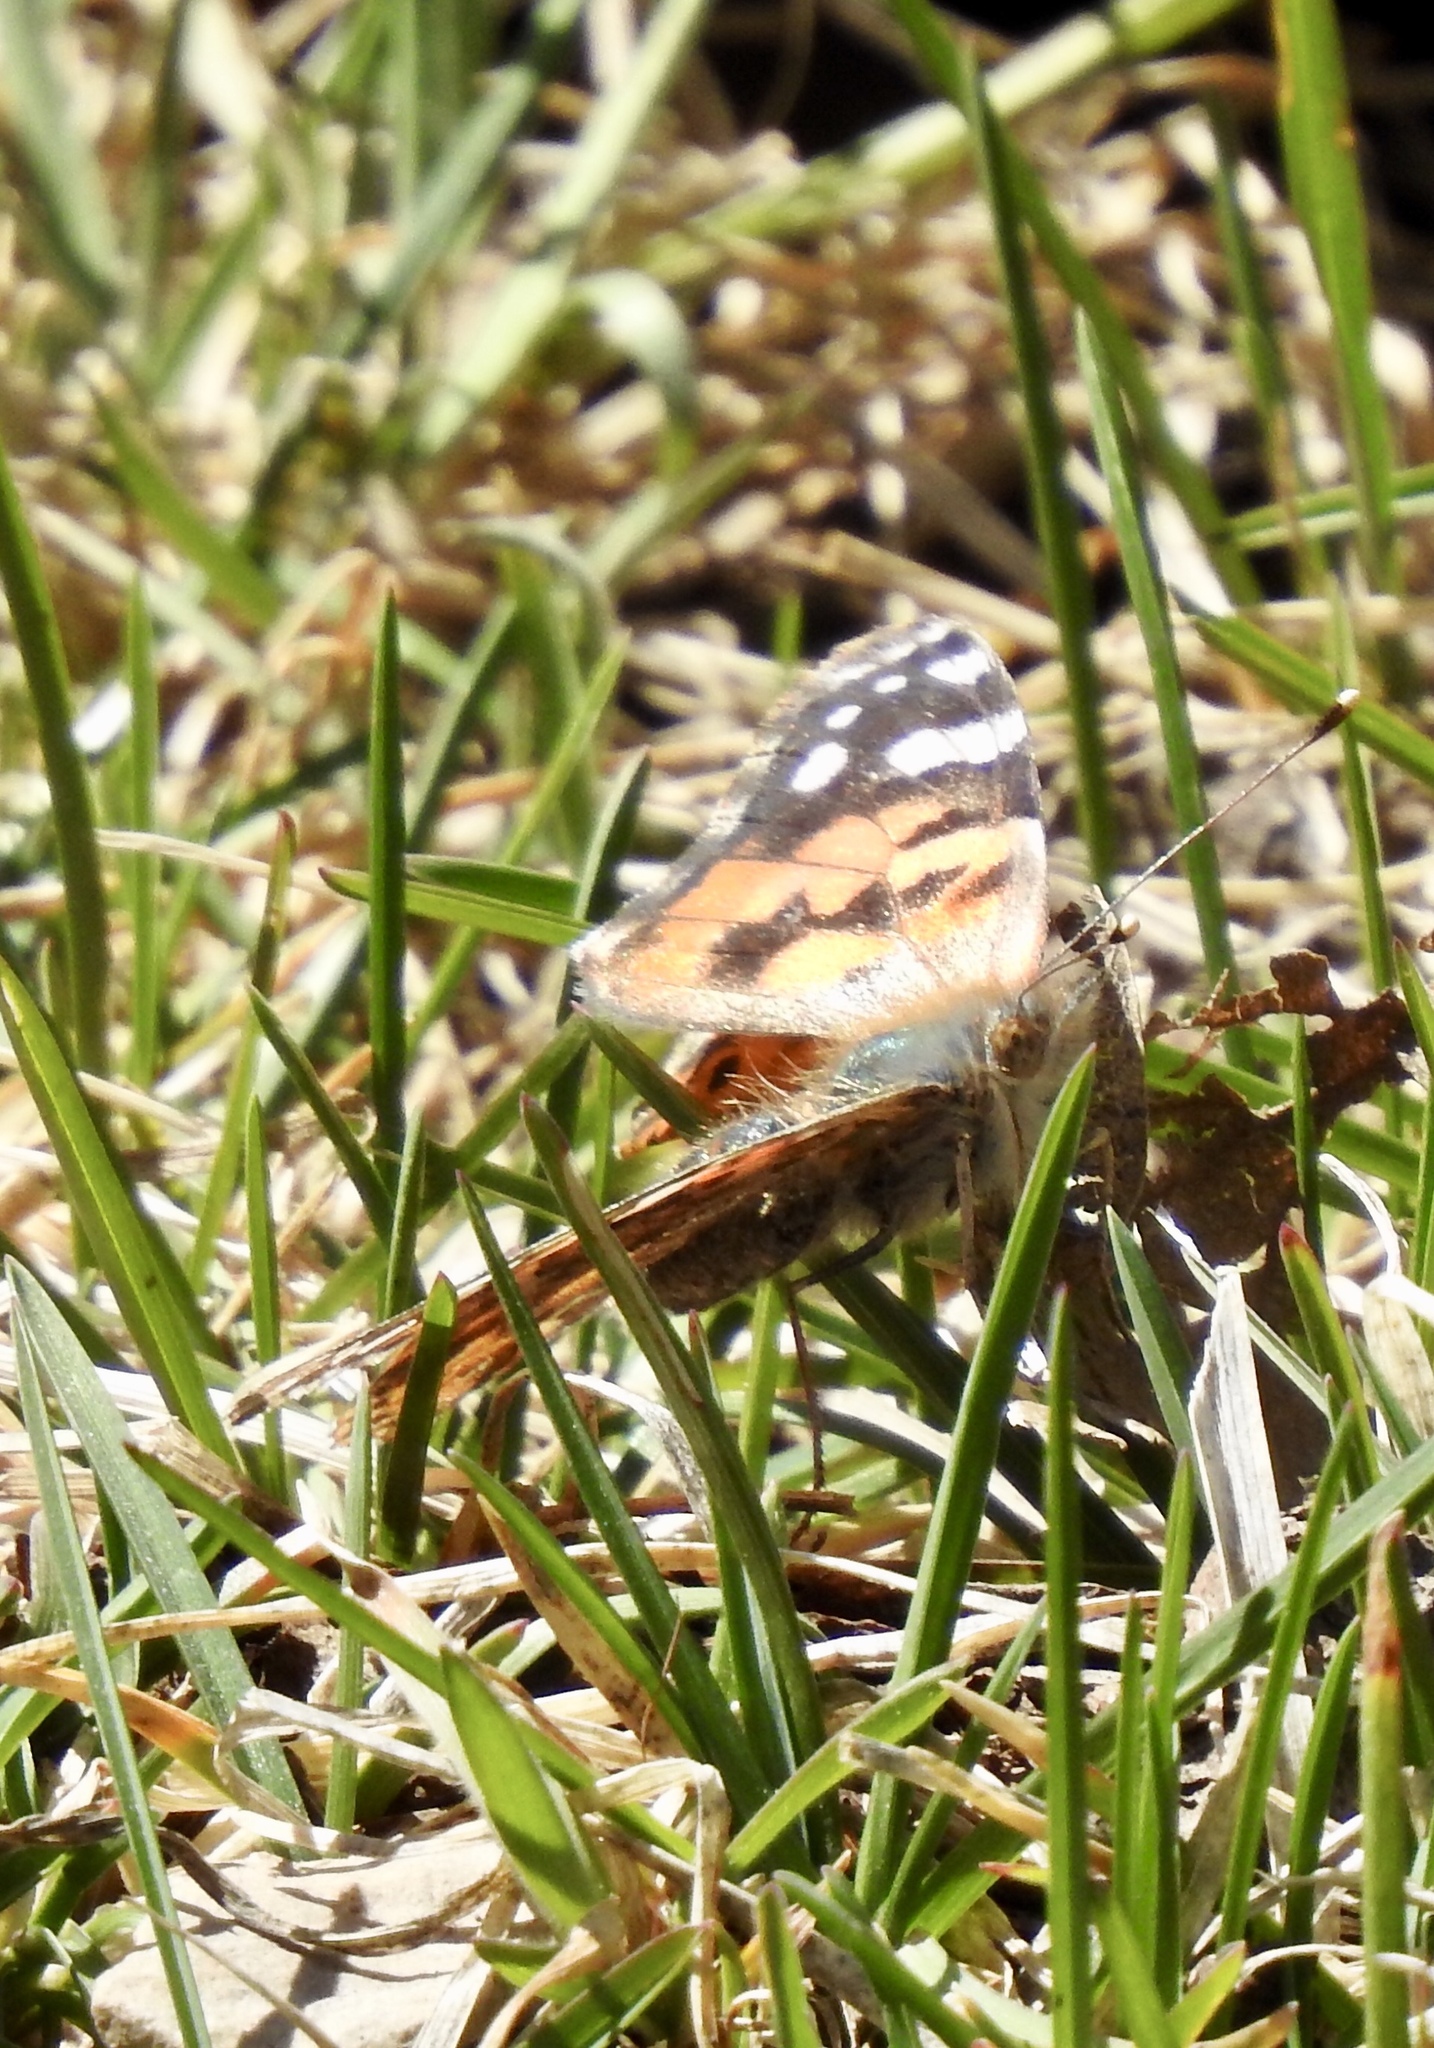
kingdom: Animalia
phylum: Arthropoda
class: Insecta
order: Lepidoptera
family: Nymphalidae
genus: Vanessa
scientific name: Vanessa cardui
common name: Painted lady
